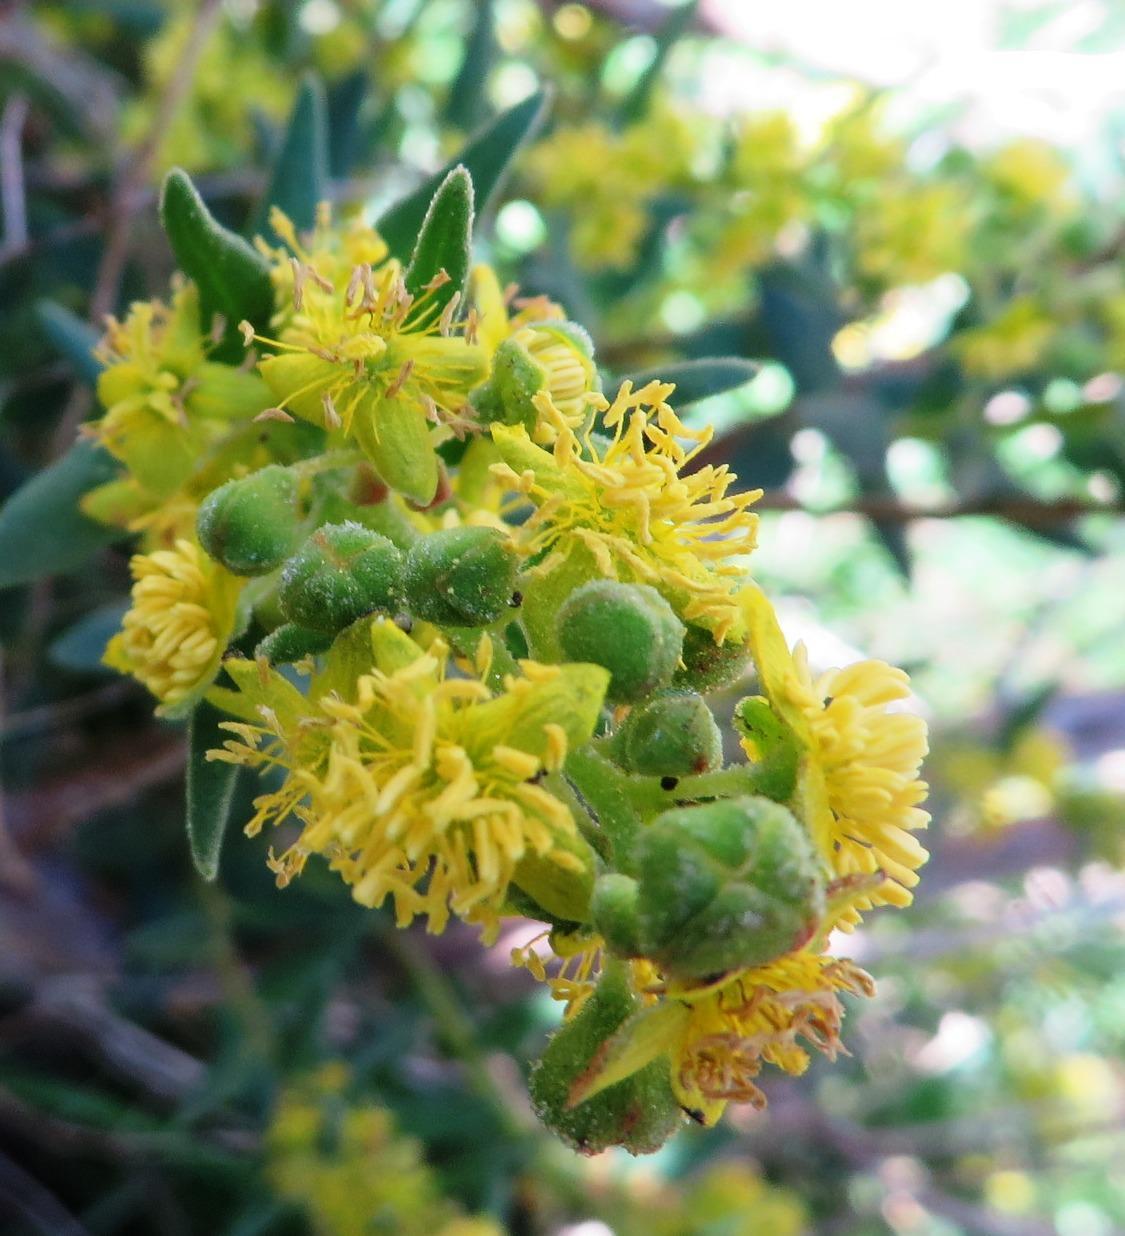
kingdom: Plantae
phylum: Tracheophyta
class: Magnoliopsida
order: Caryophyllales
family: Aizoaceae
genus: Tetragonia
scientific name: Tetragonia fruticosa
